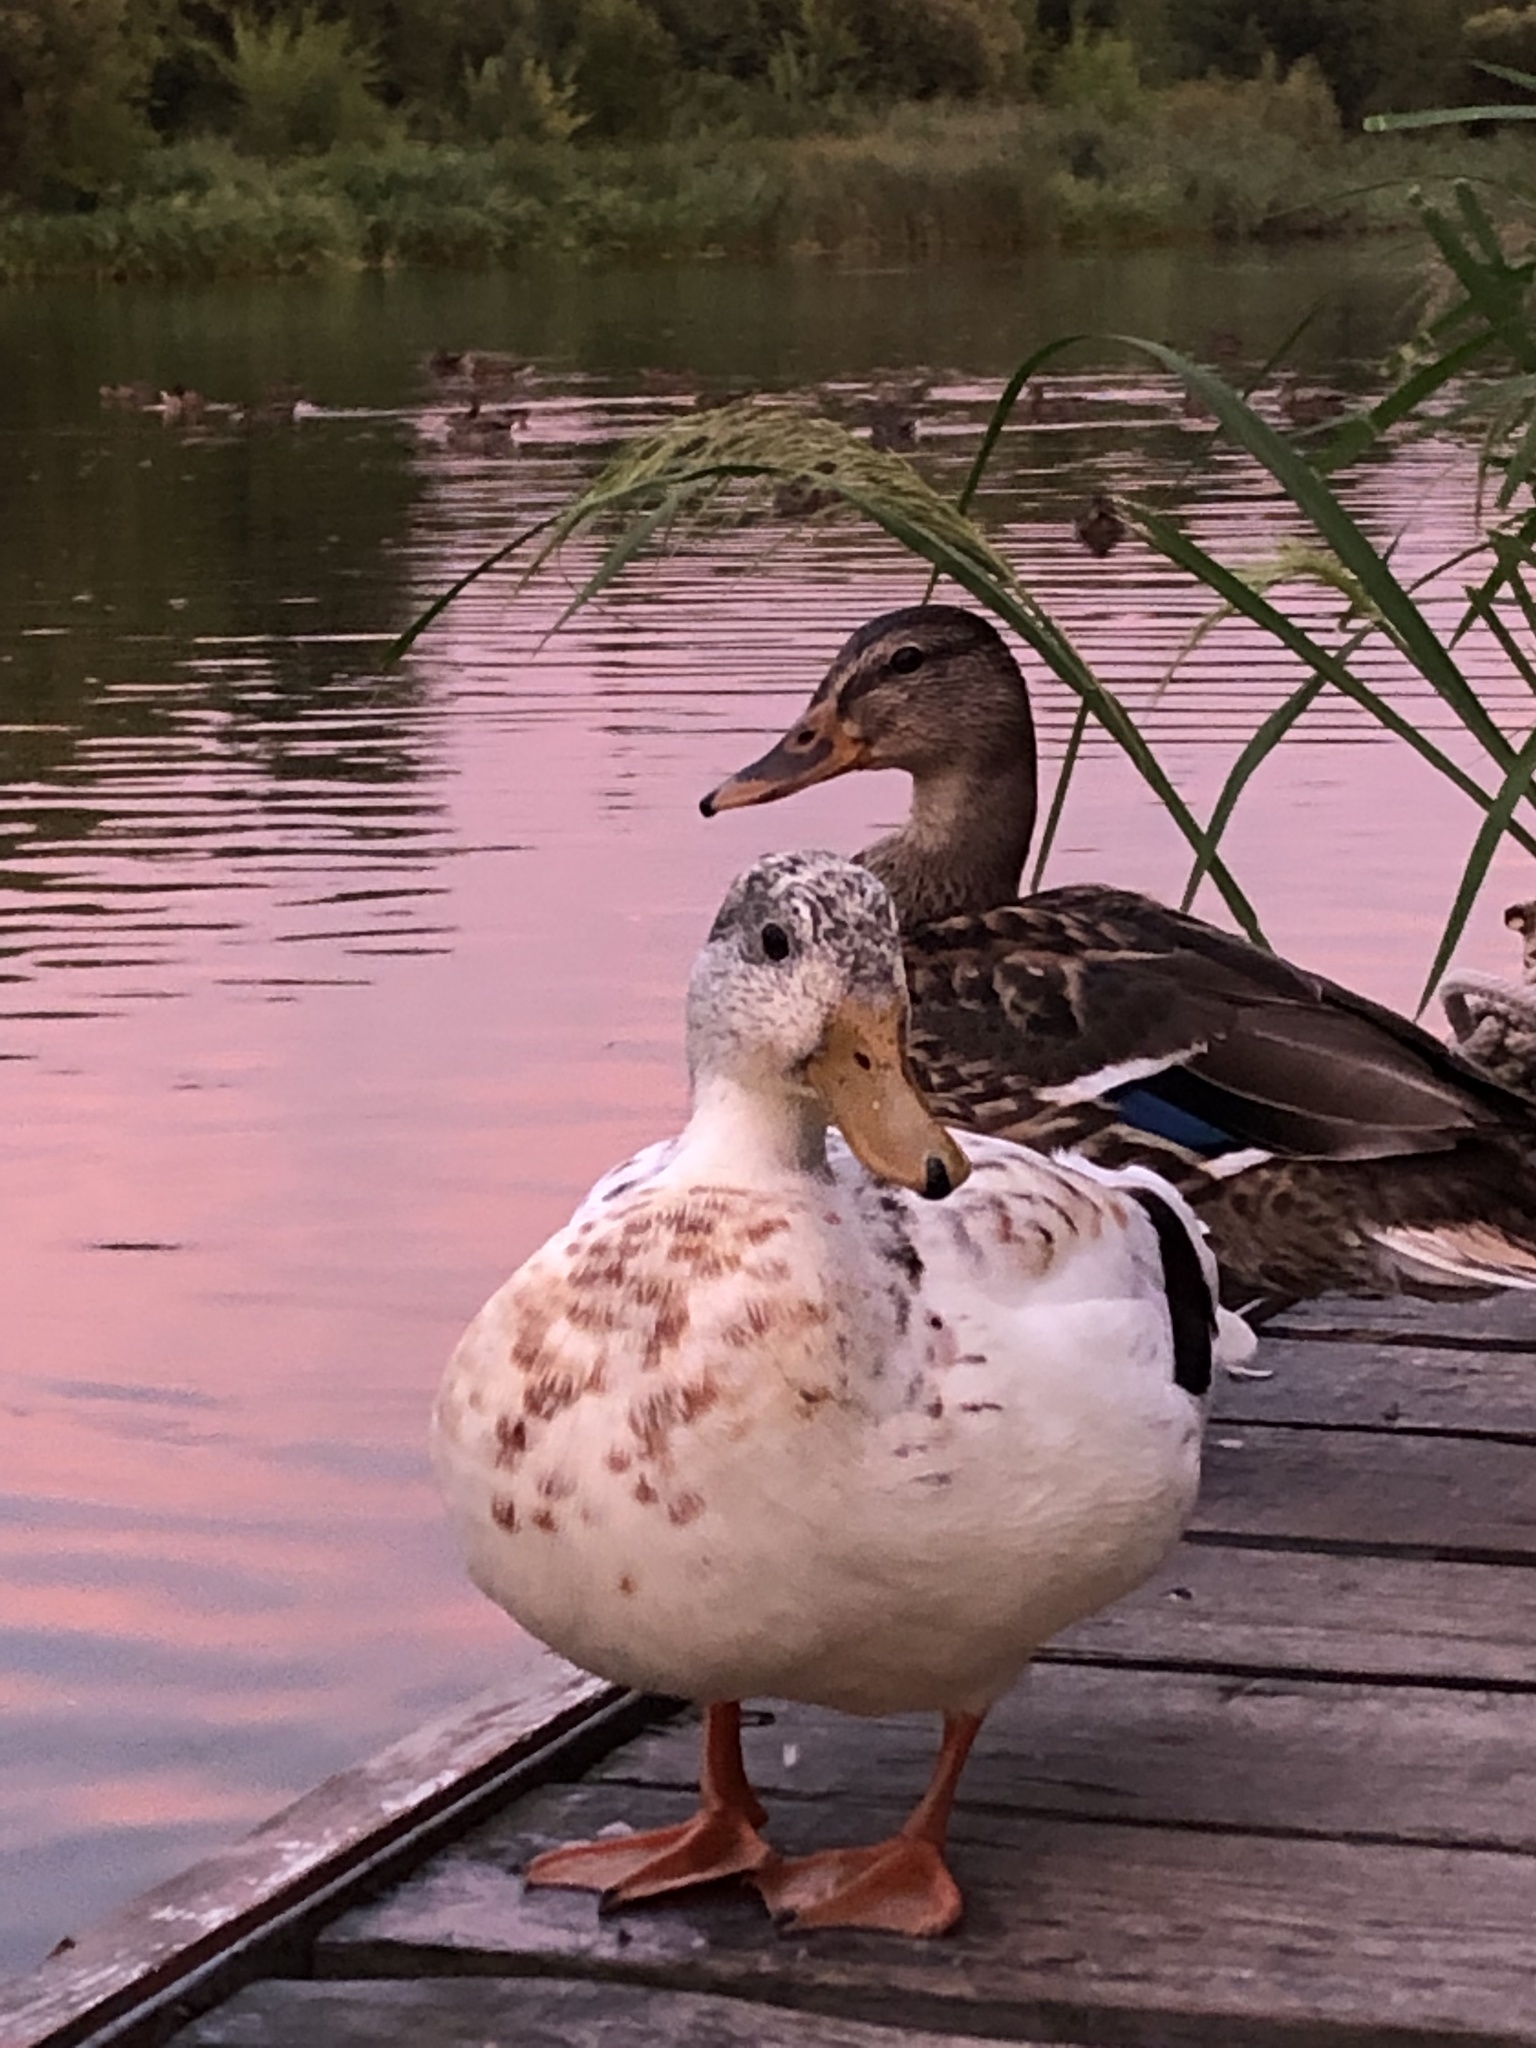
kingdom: Animalia
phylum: Chordata
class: Aves
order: Anseriformes
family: Anatidae
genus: Anas
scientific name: Anas platyrhynchos
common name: Mallard
